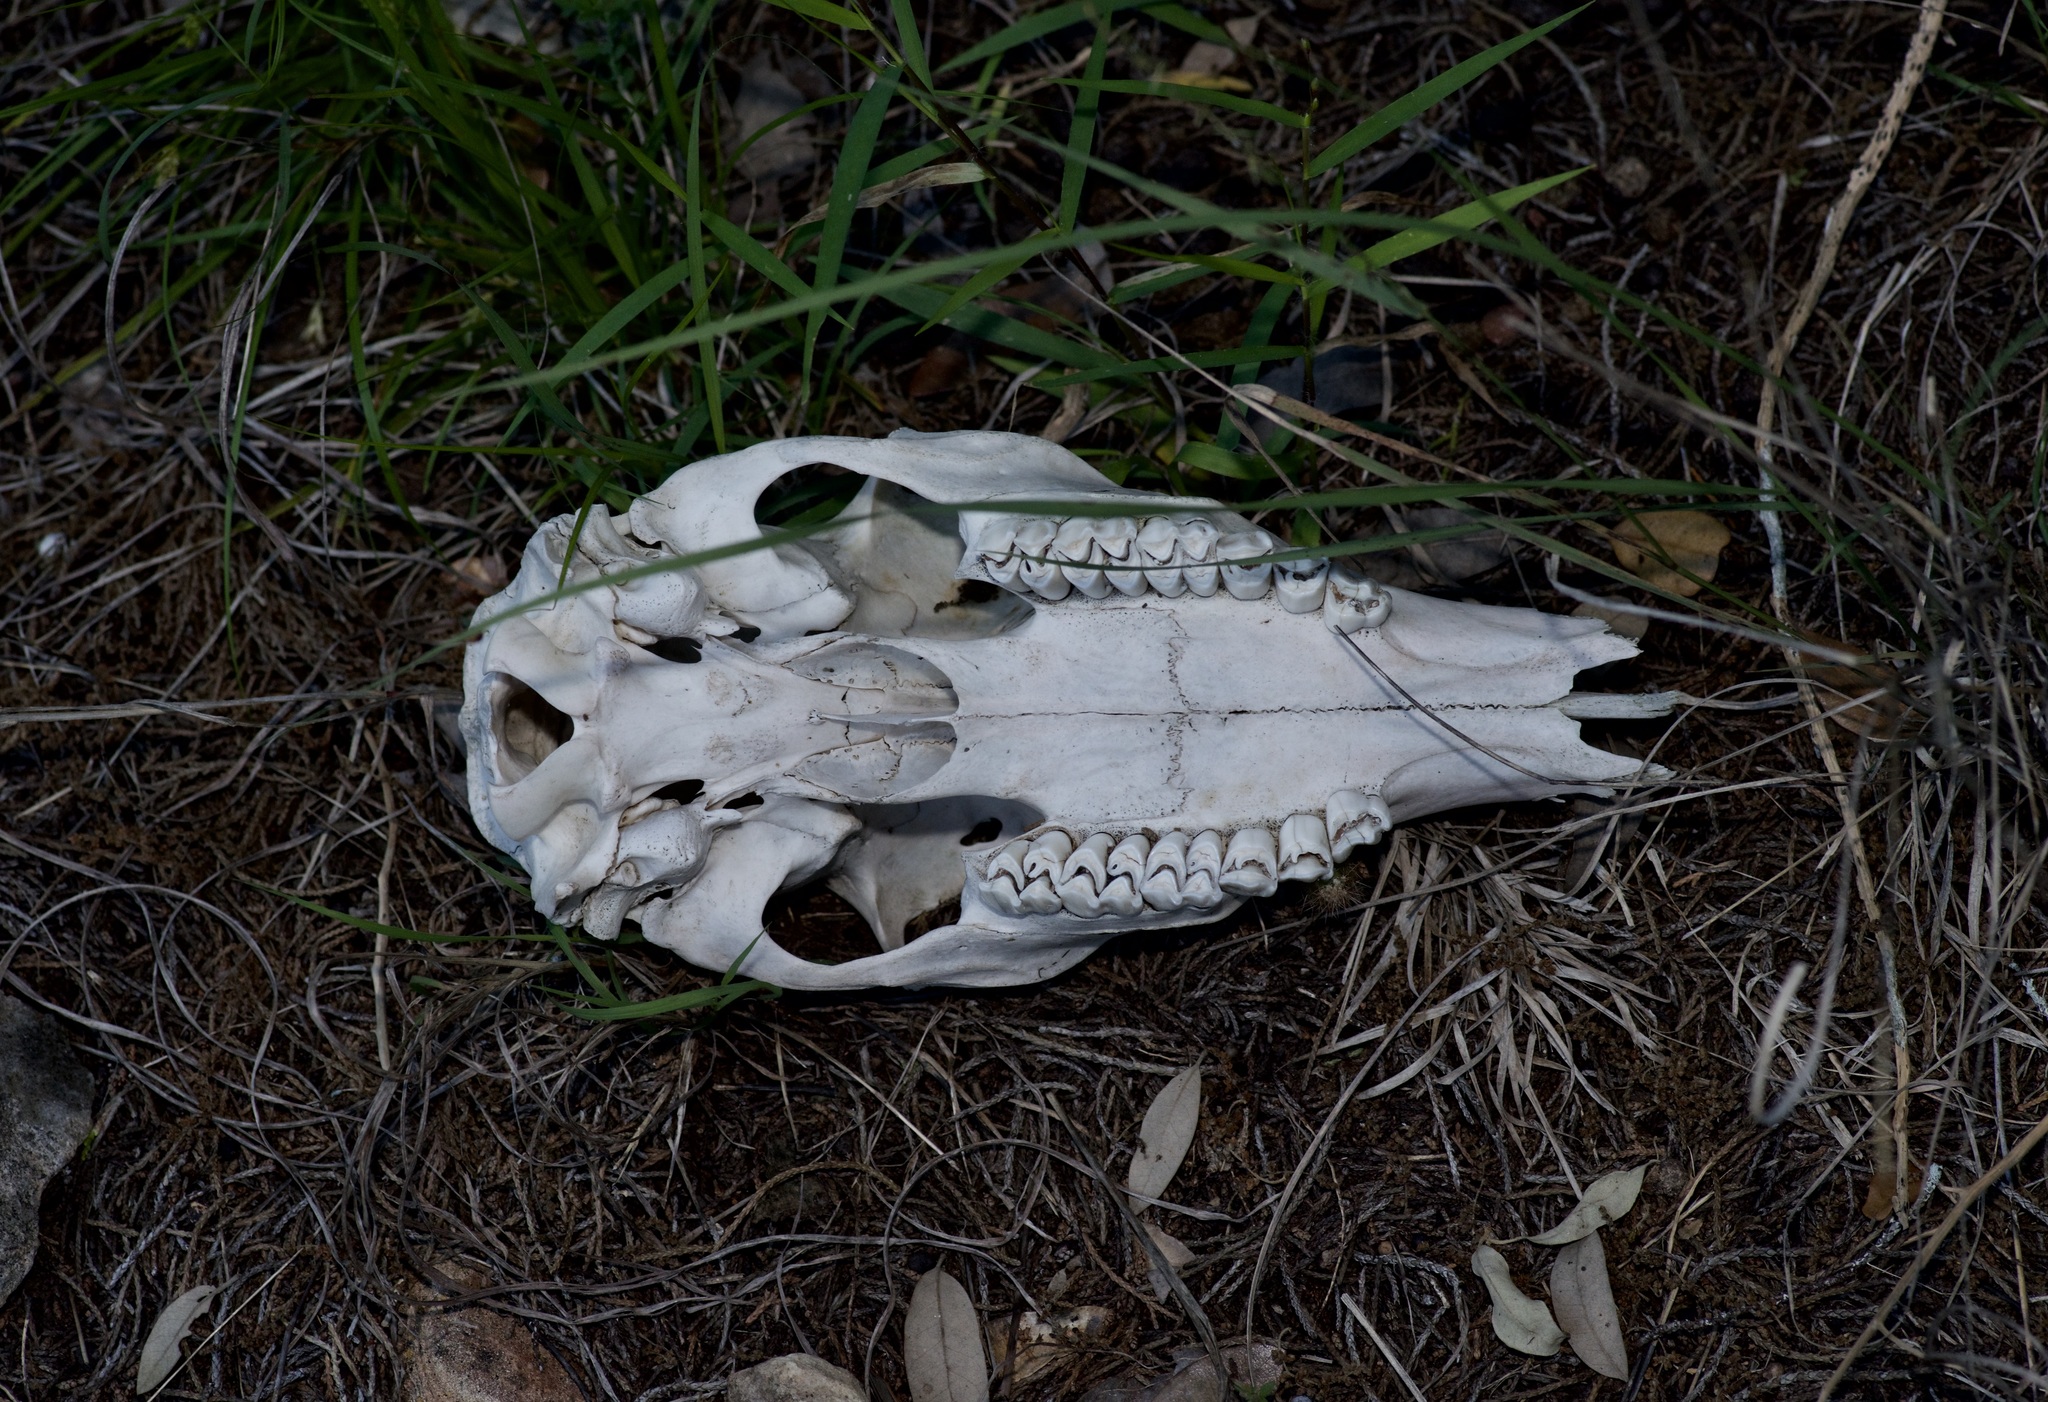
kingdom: Animalia
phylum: Chordata
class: Mammalia
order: Artiodactyla
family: Cervidae
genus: Odocoileus
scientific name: Odocoileus virginianus
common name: White-tailed deer
